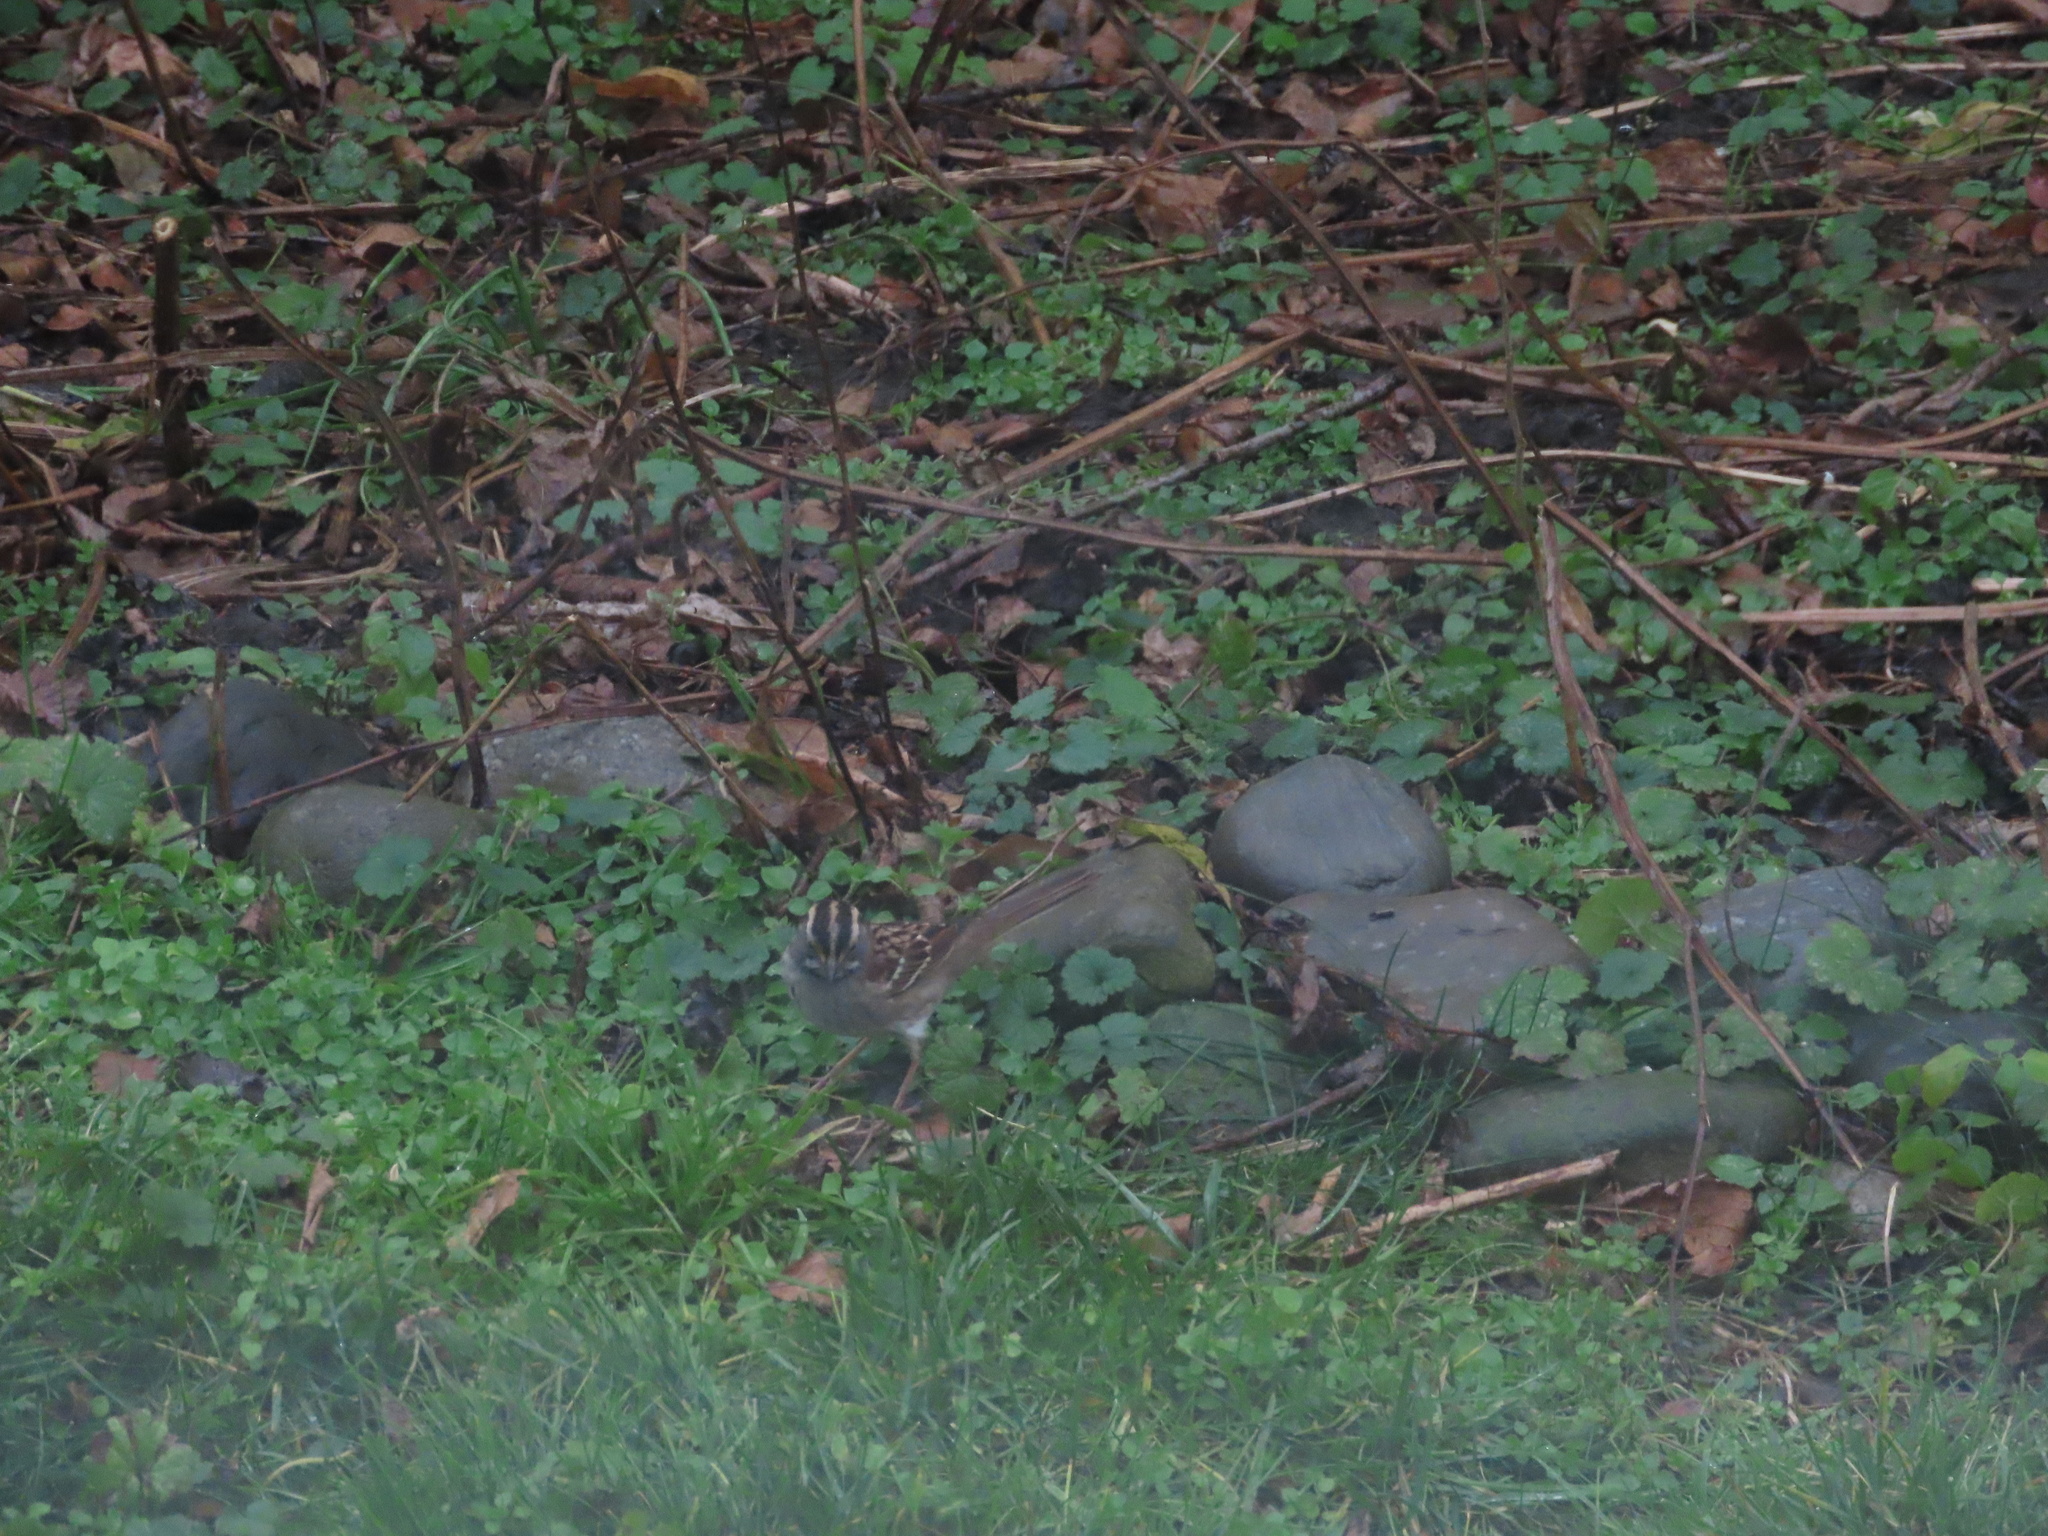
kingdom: Animalia
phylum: Chordata
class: Aves
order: Passeriformes
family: Passerellidae
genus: Zonotrichia
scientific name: Zonotrichia albicollis
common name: White-throated sparrow
